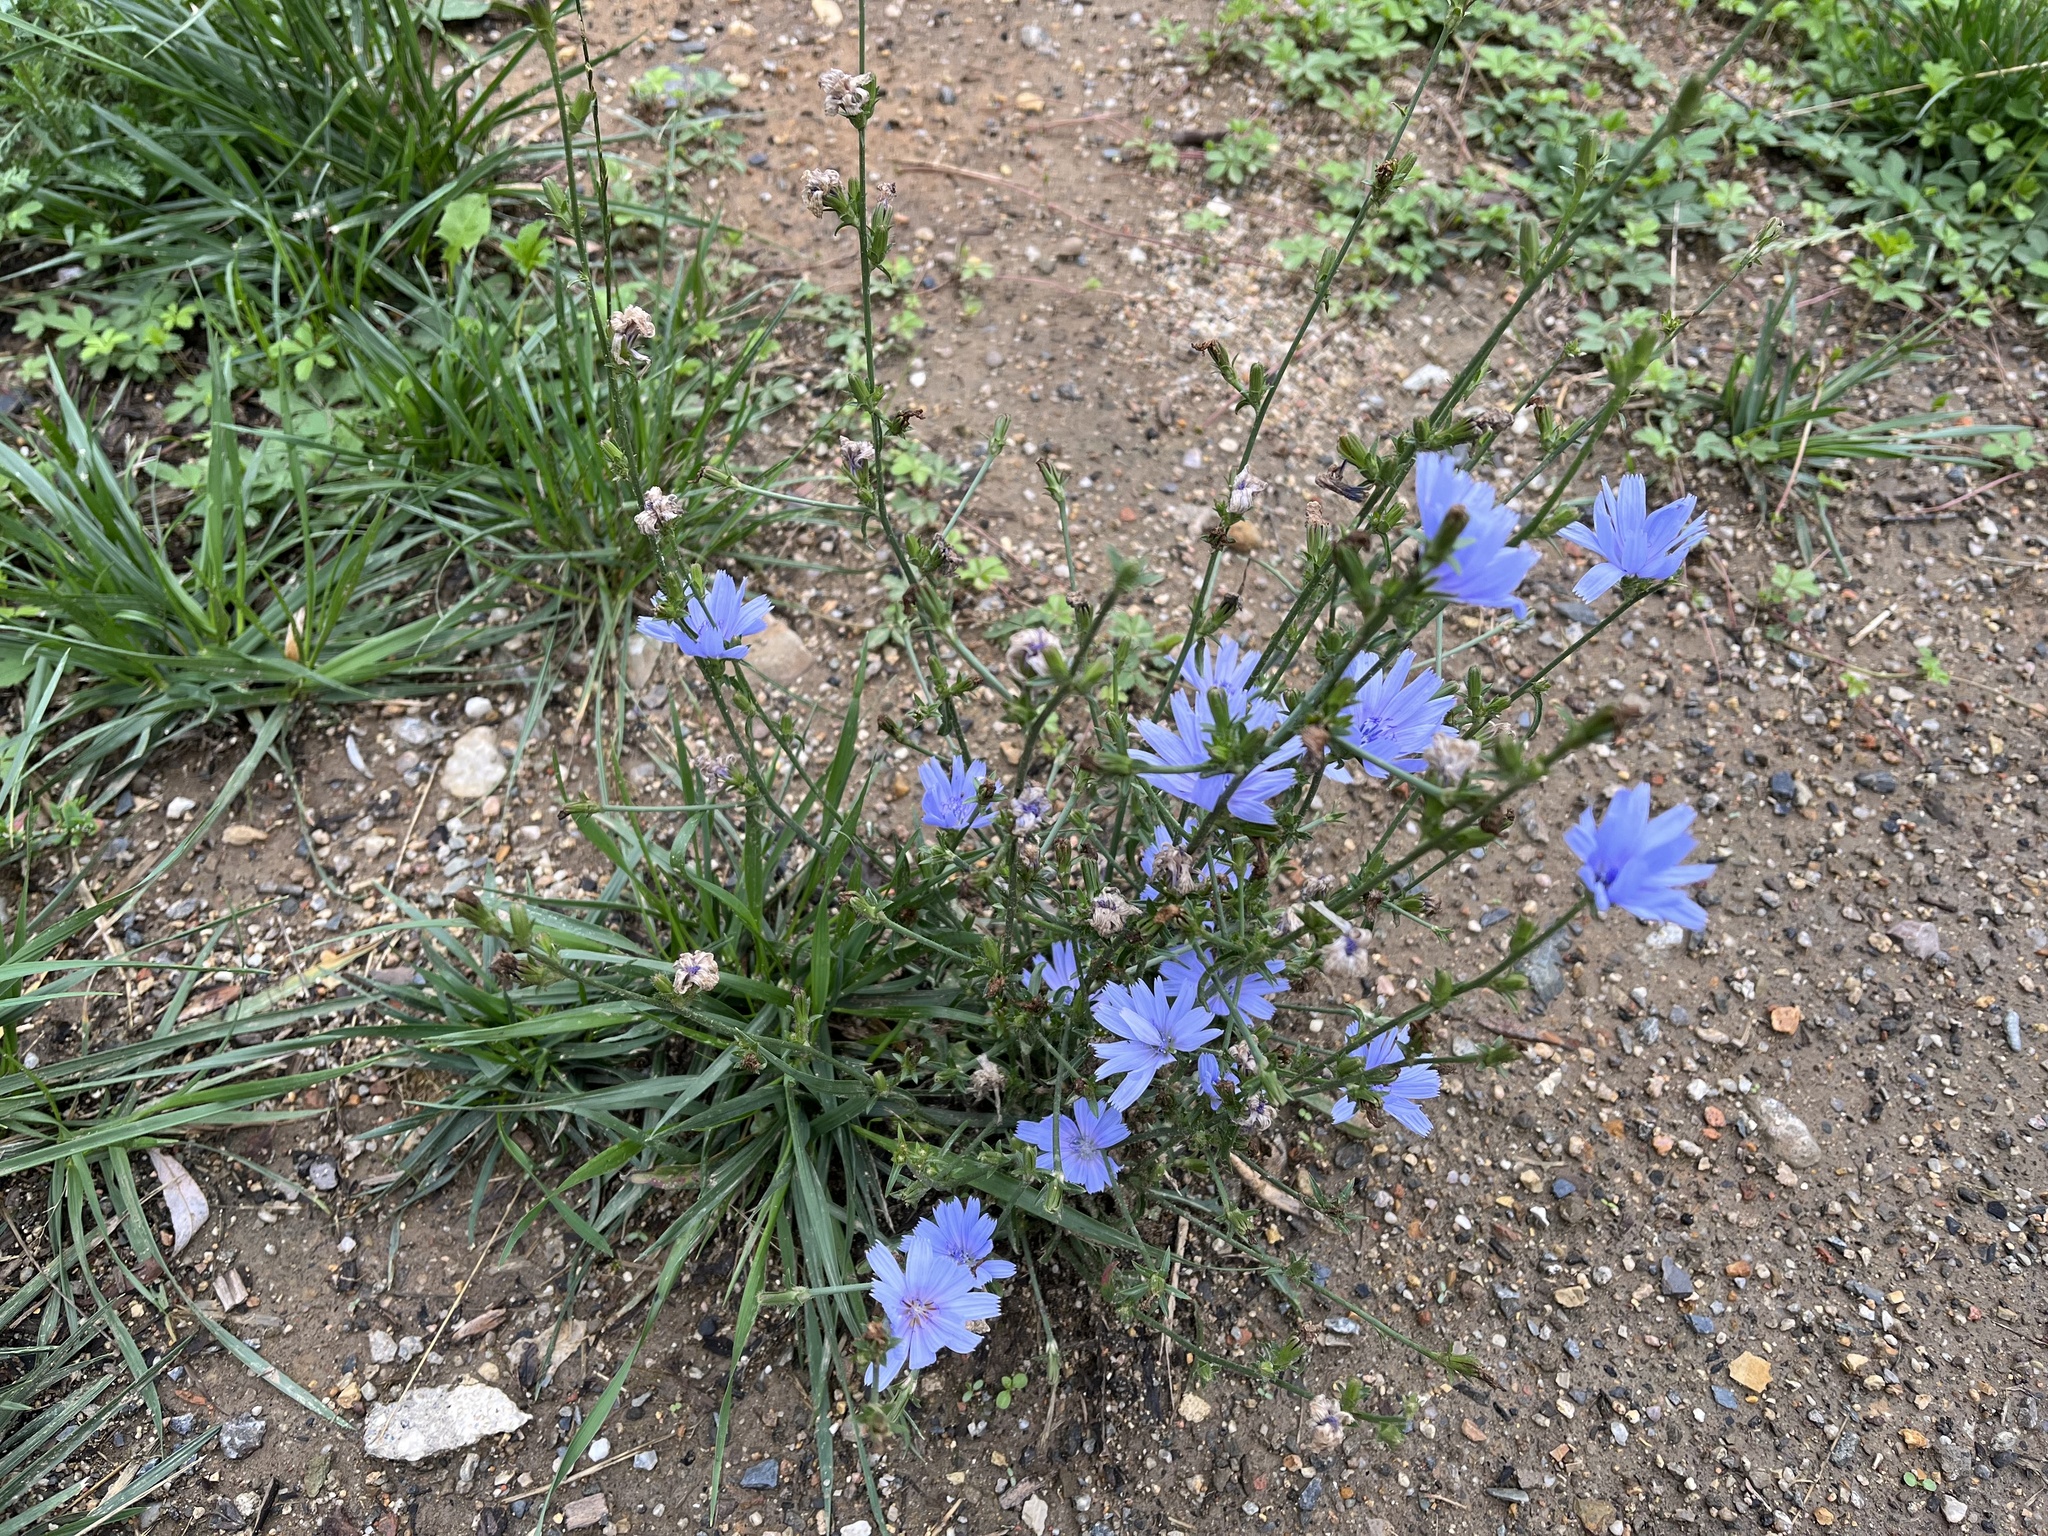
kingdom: Plantae
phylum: Tracheophyta
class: Magnoliopsida
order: Asterales
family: Asteraceae
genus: Cichorium
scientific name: Cichorium intybus
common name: Chicory
